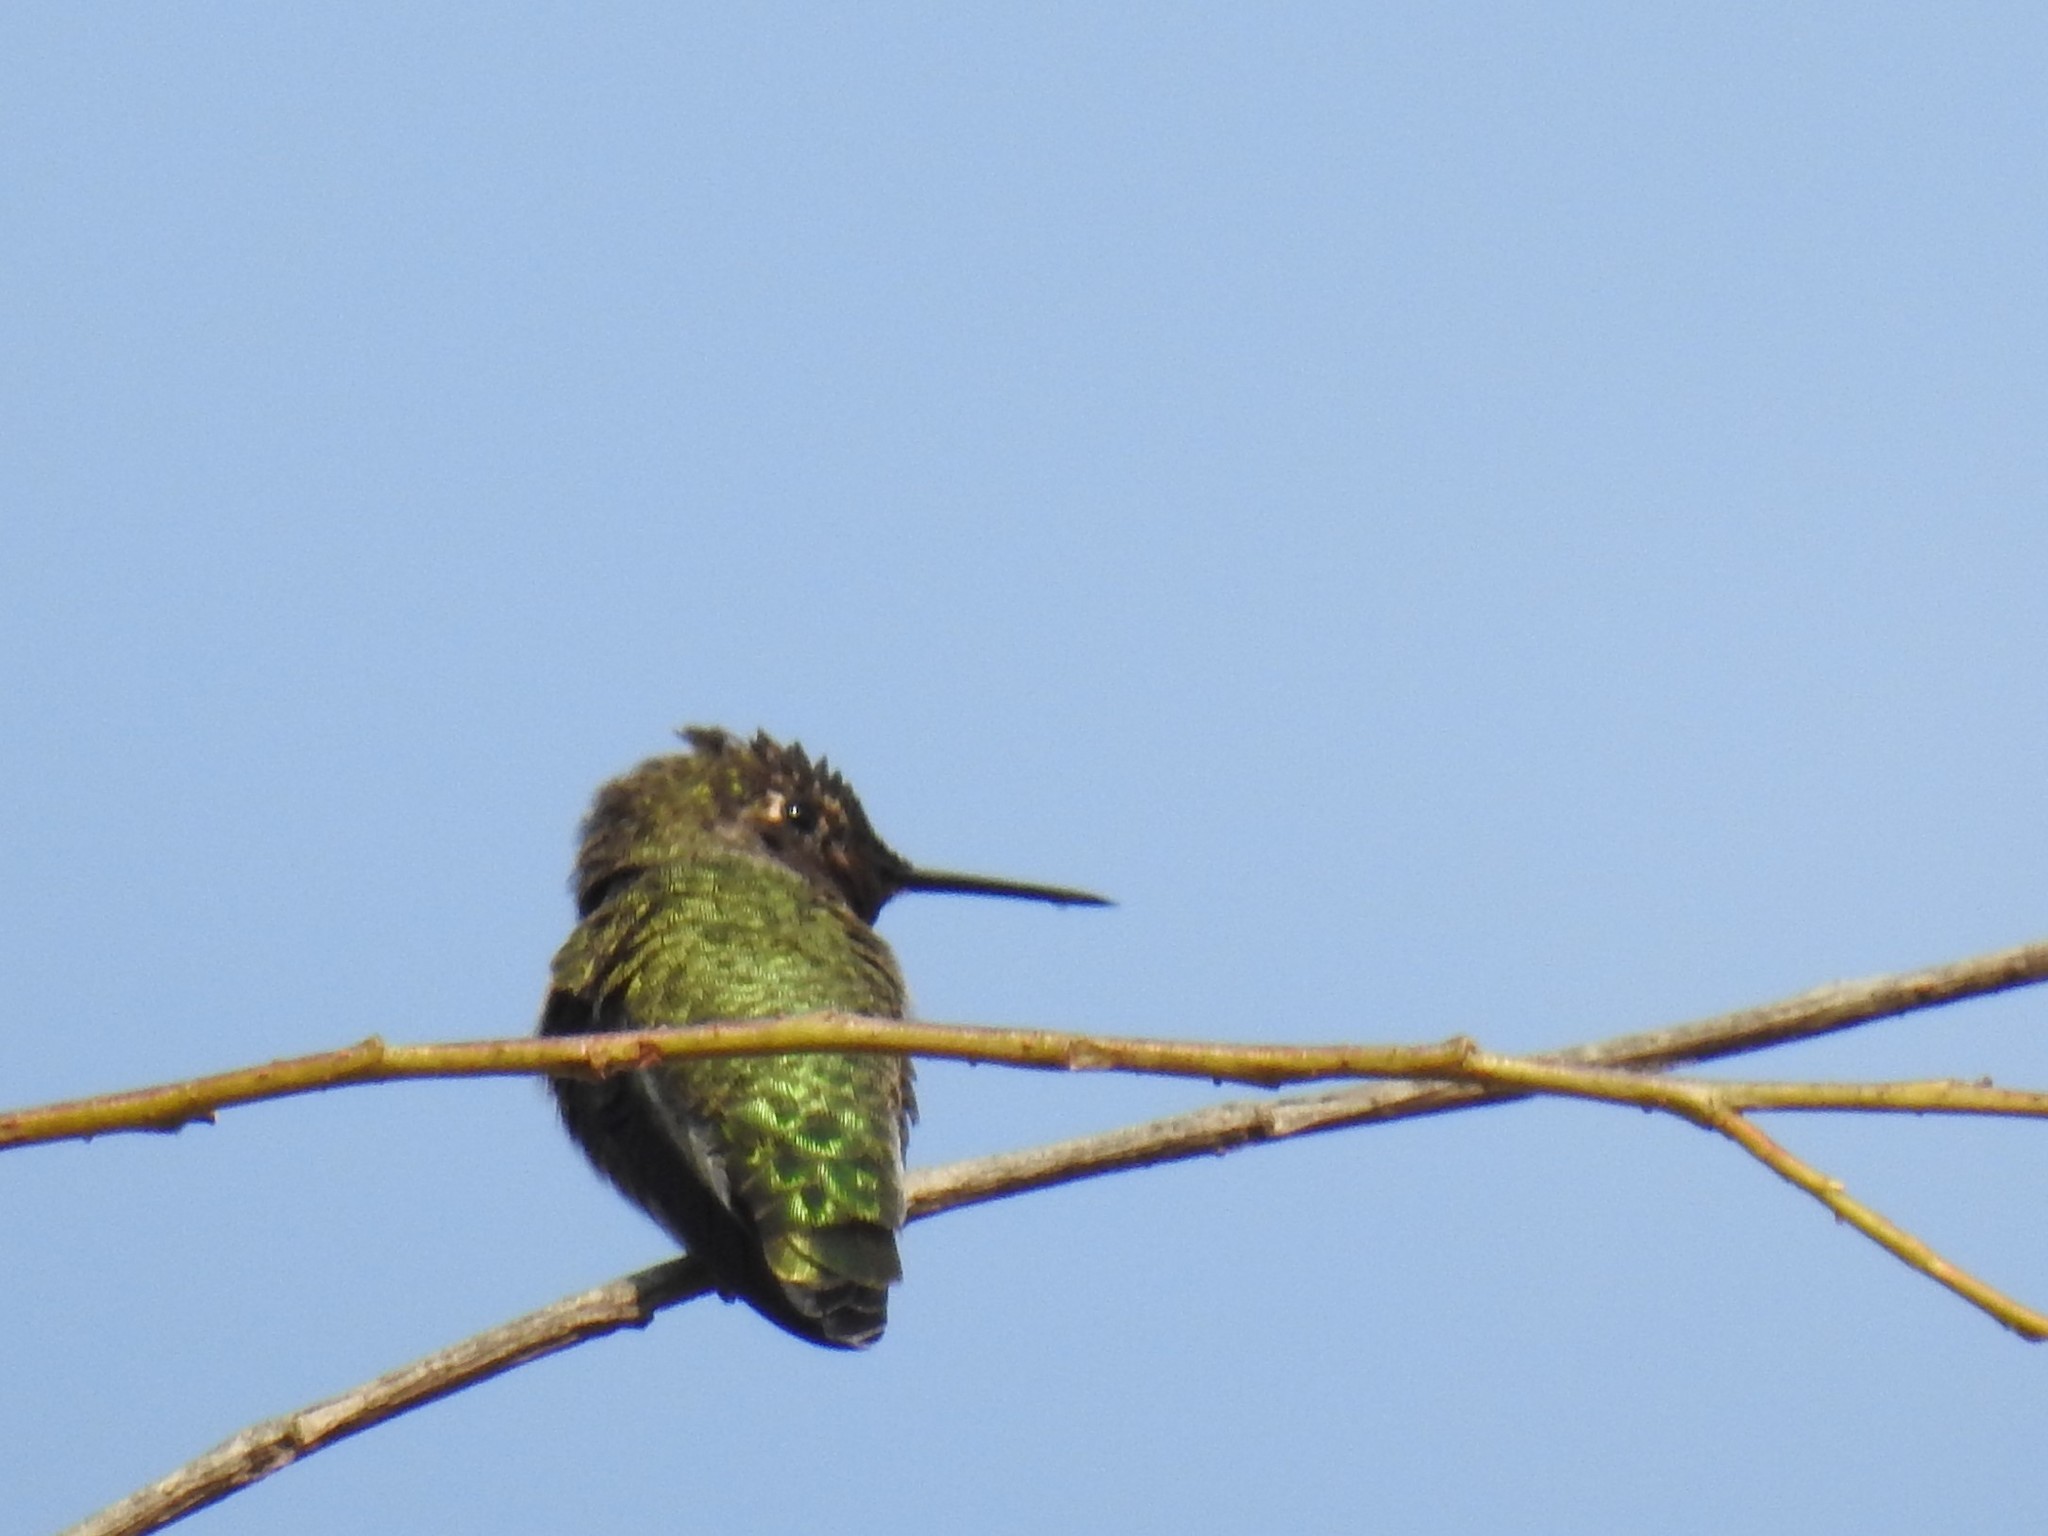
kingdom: Animalia
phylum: Chordata
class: Aves
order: Apodiformes
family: Trochilidae
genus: Calypte
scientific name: Calypte anna
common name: Anna's hummingbird
